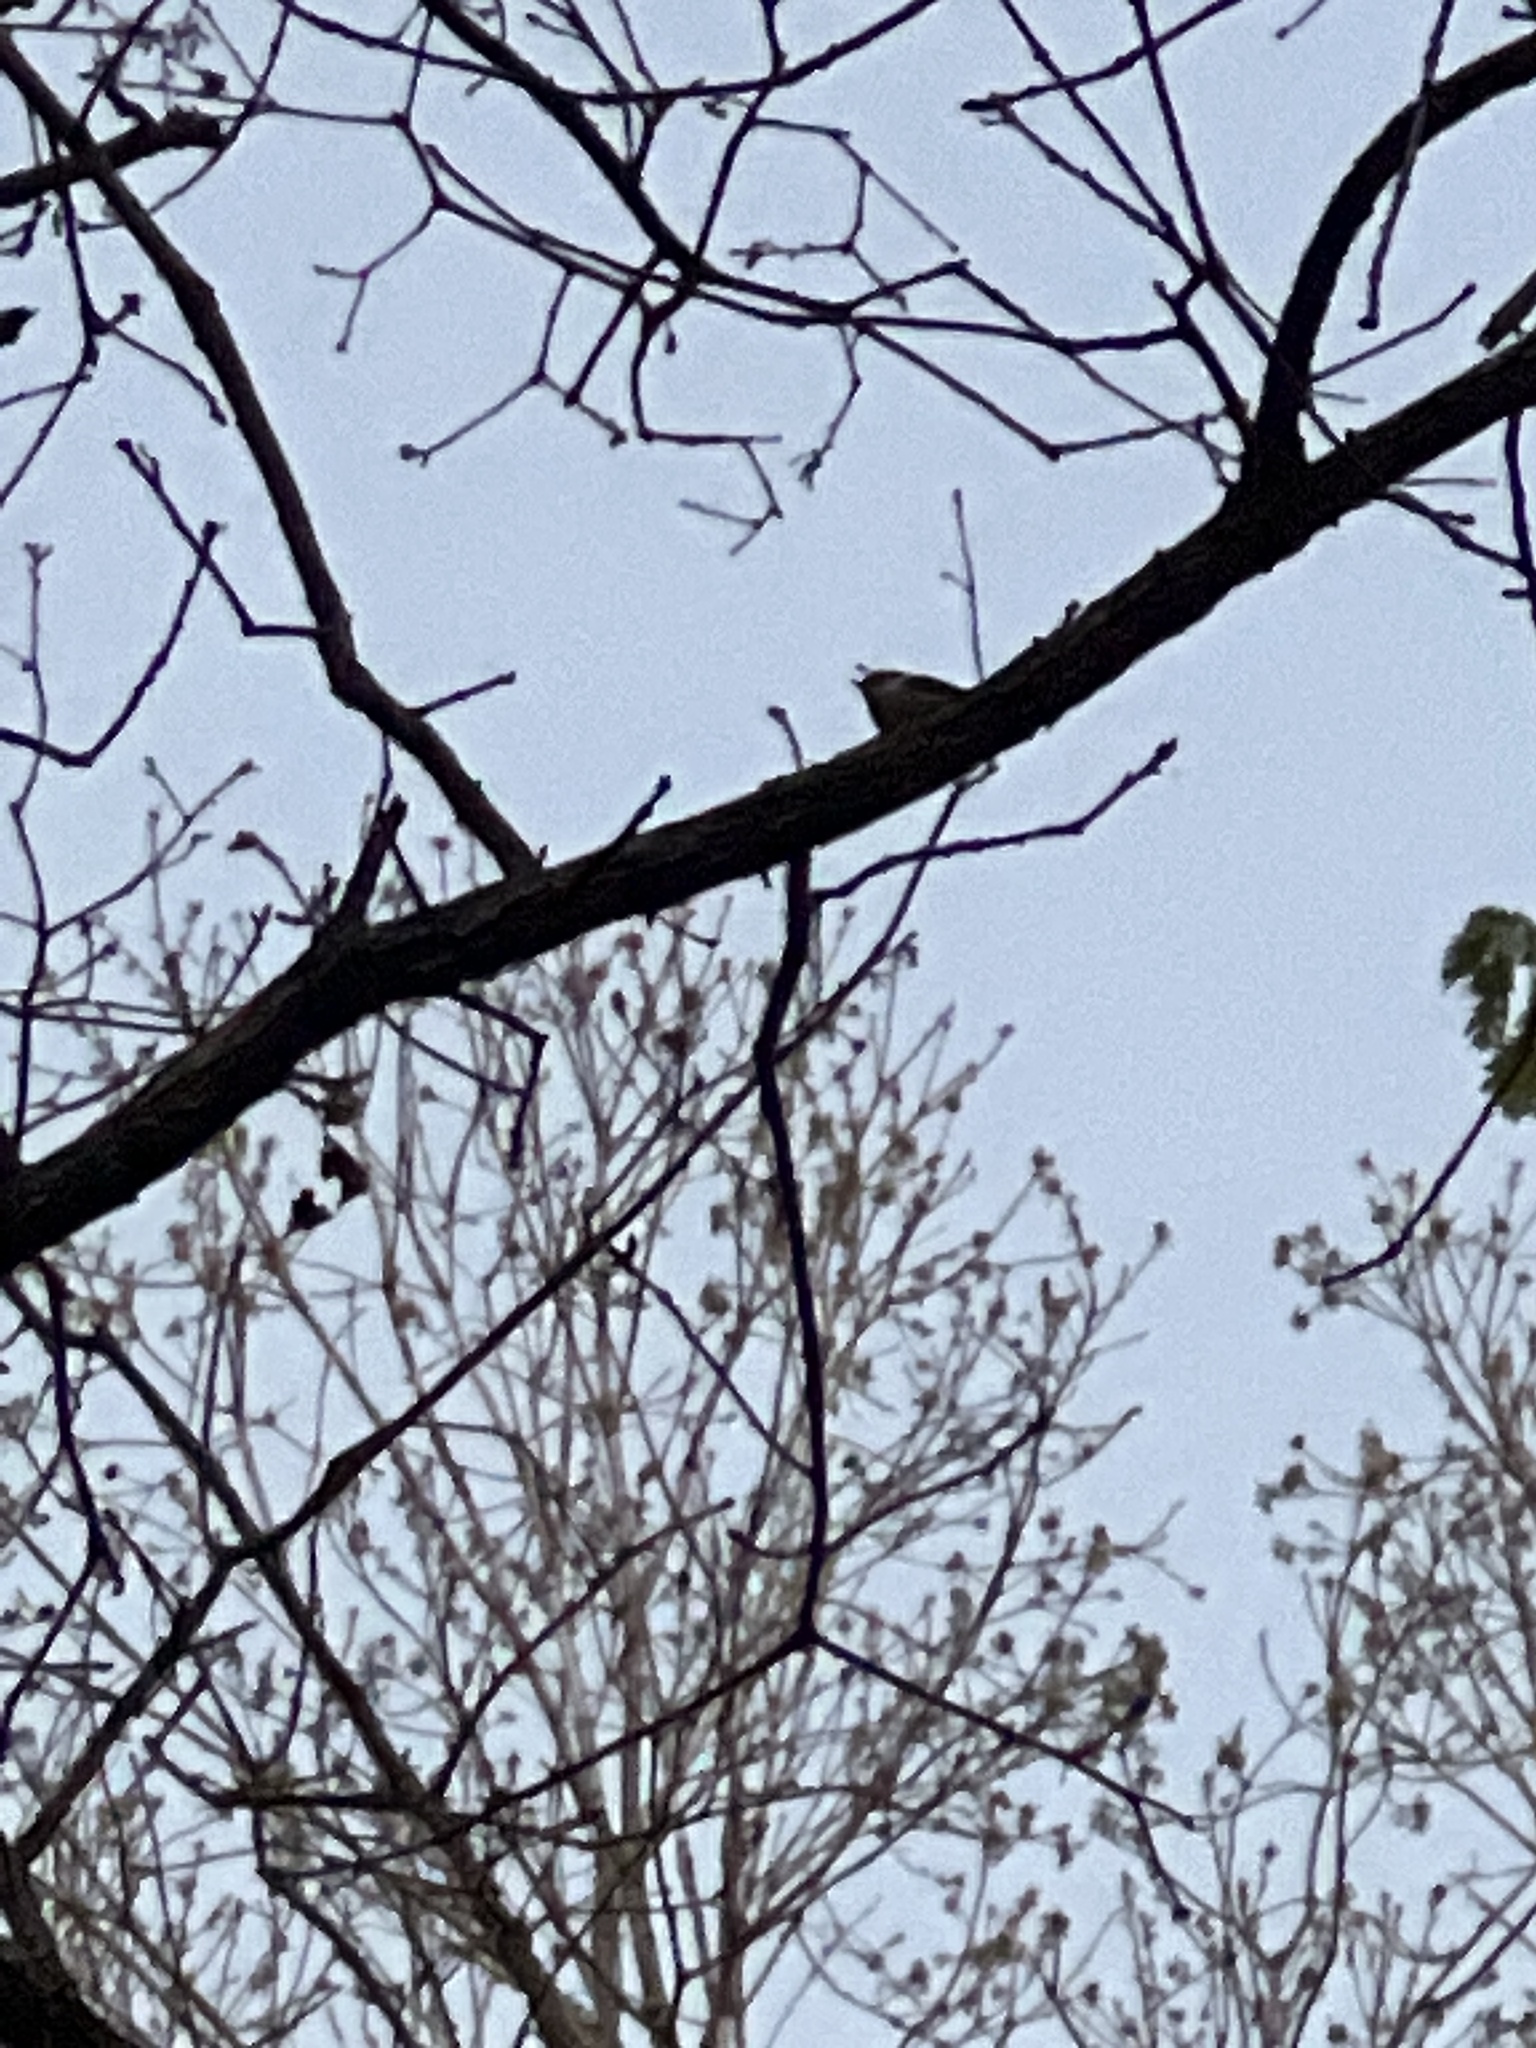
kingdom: Animalia
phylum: Chordata
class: Aves
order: Passeriformes
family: Sittidae
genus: Sitta
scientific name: Sitta pusilla
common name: Brown-headed nuthatch
